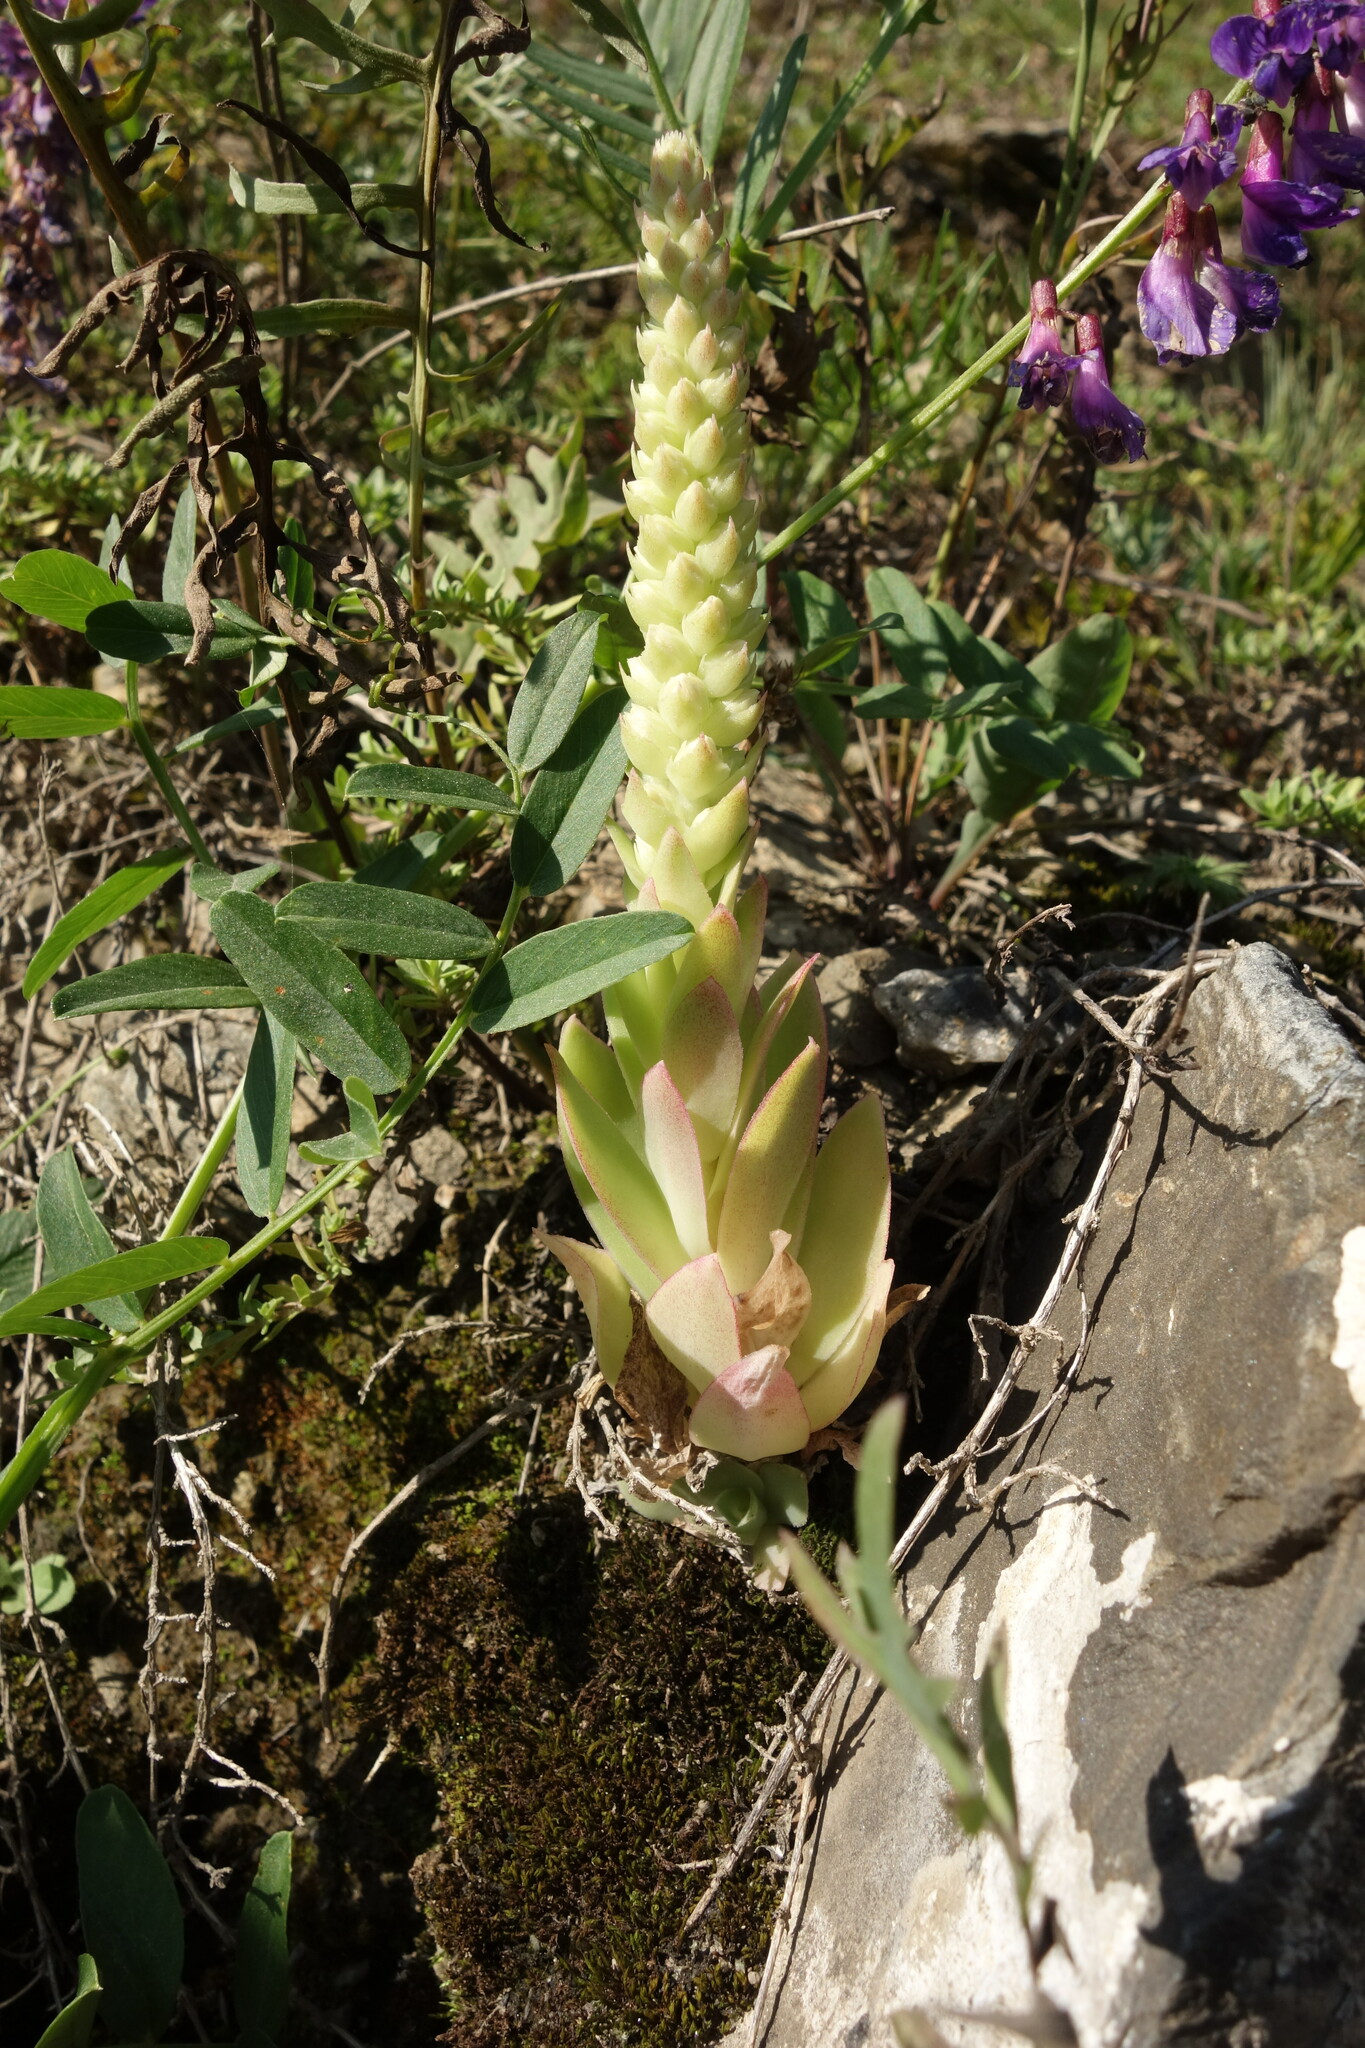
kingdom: Plantae
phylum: Tracheophyta
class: Magnoliopsida
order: Saxifragales
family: Crassulaceae
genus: Orostachys
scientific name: Orostachys malacophylla
